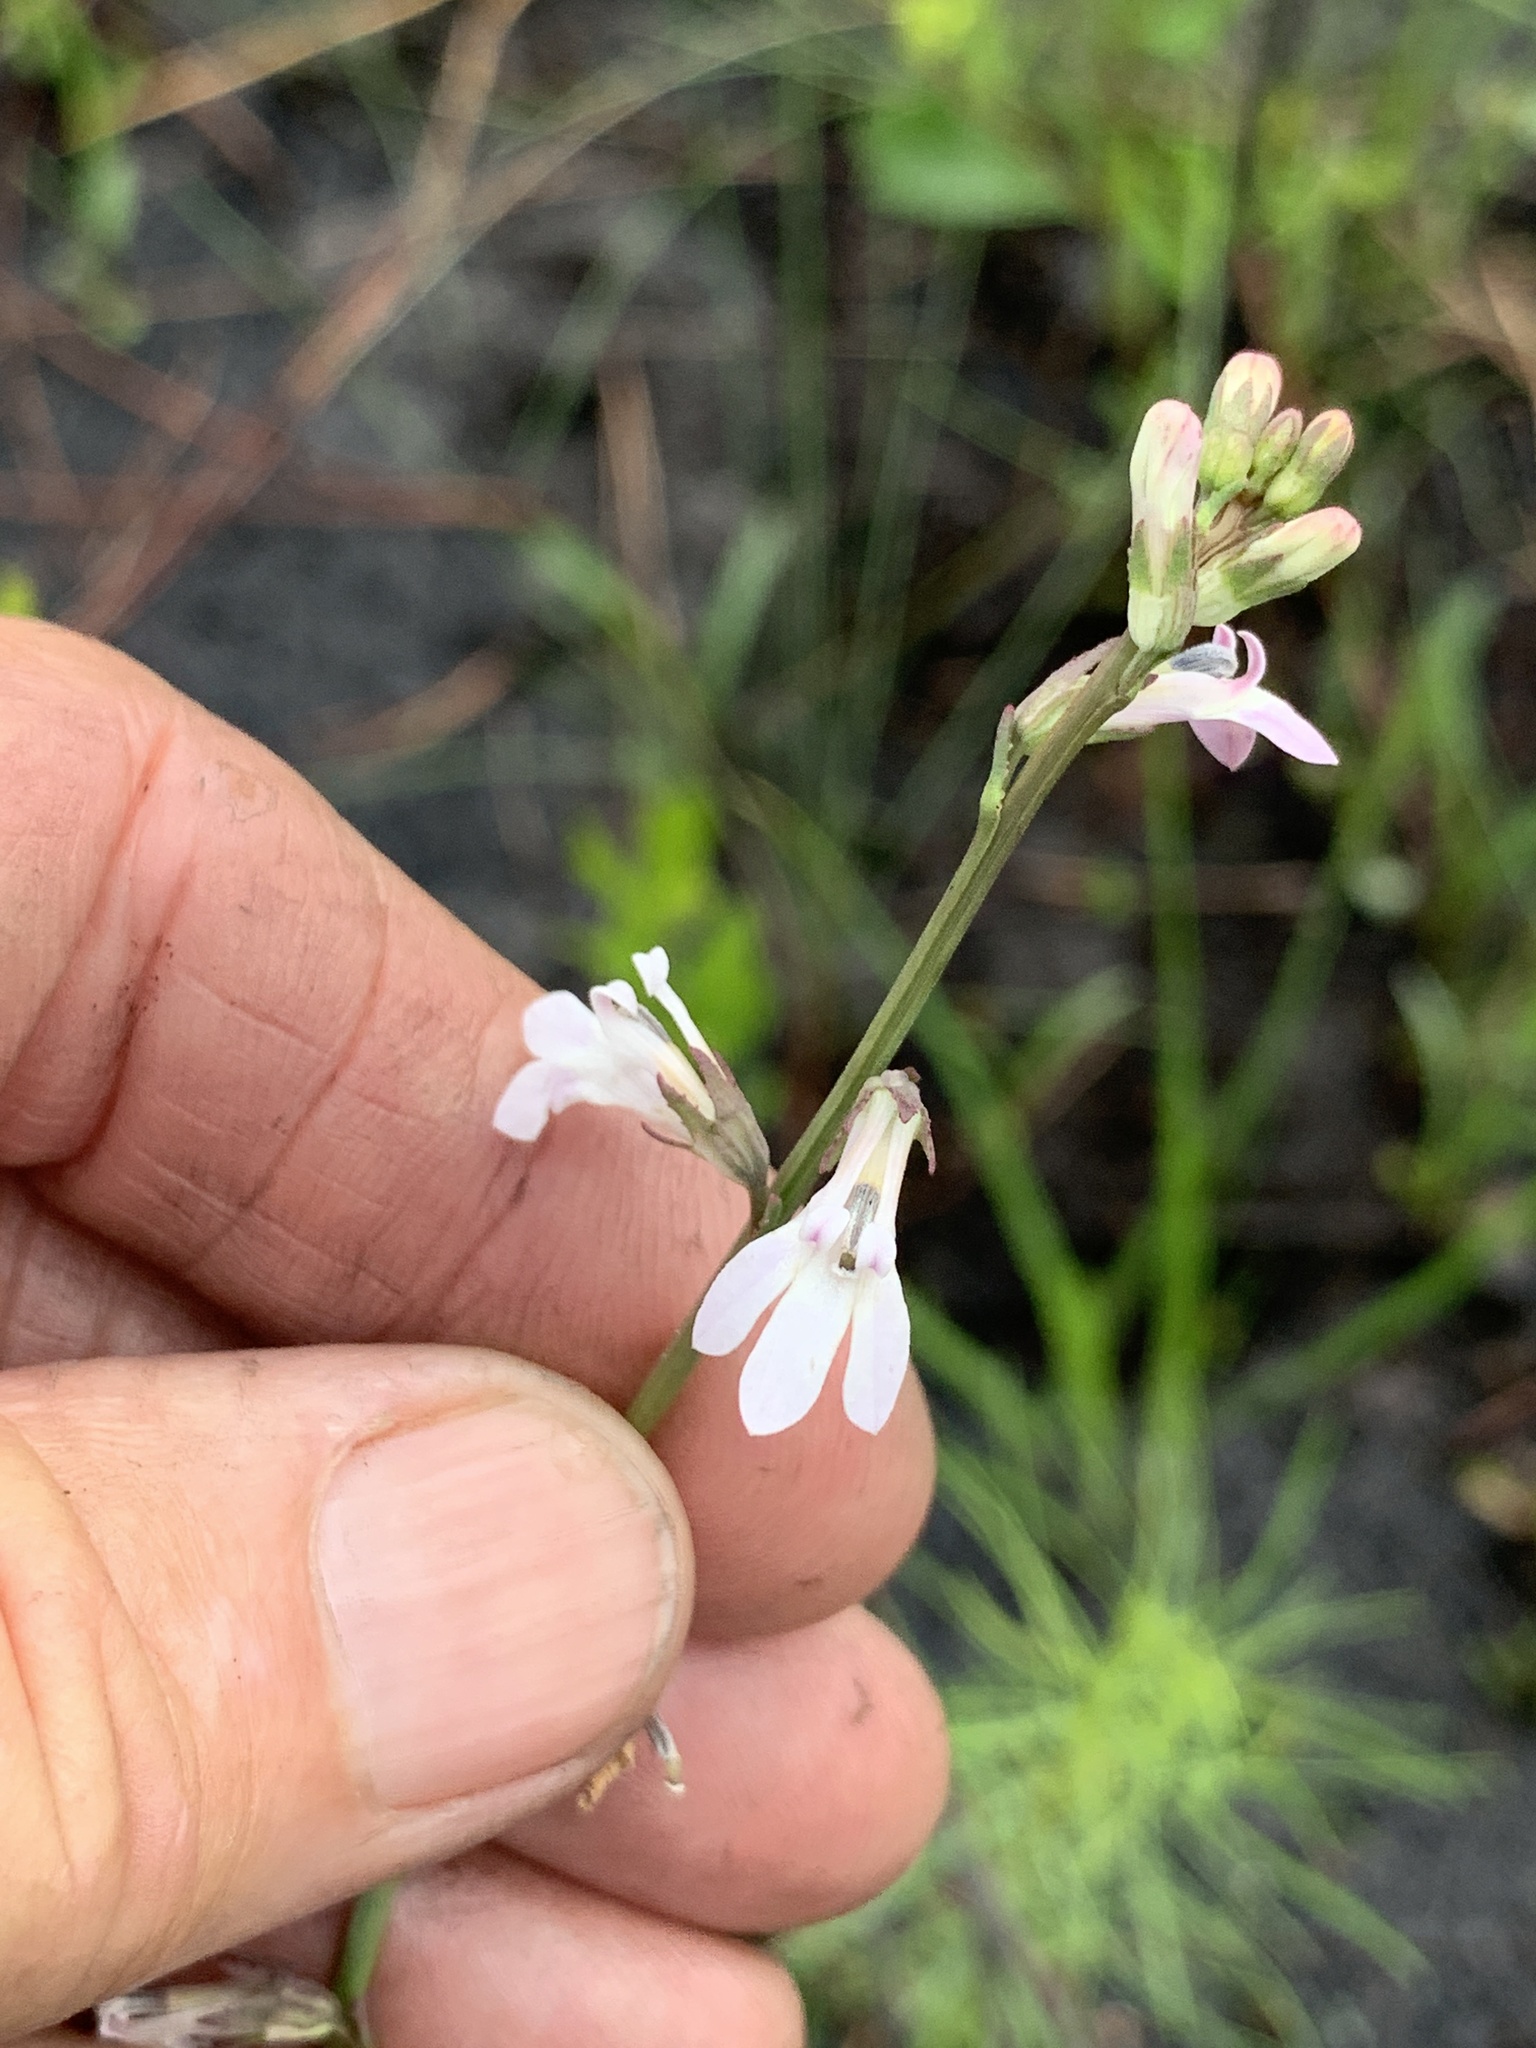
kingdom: Plantae
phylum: Tracheophyta
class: Magnoliopsida
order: Asterales
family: Campanulaceae
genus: Lobelia
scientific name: Lobelia paludosa
